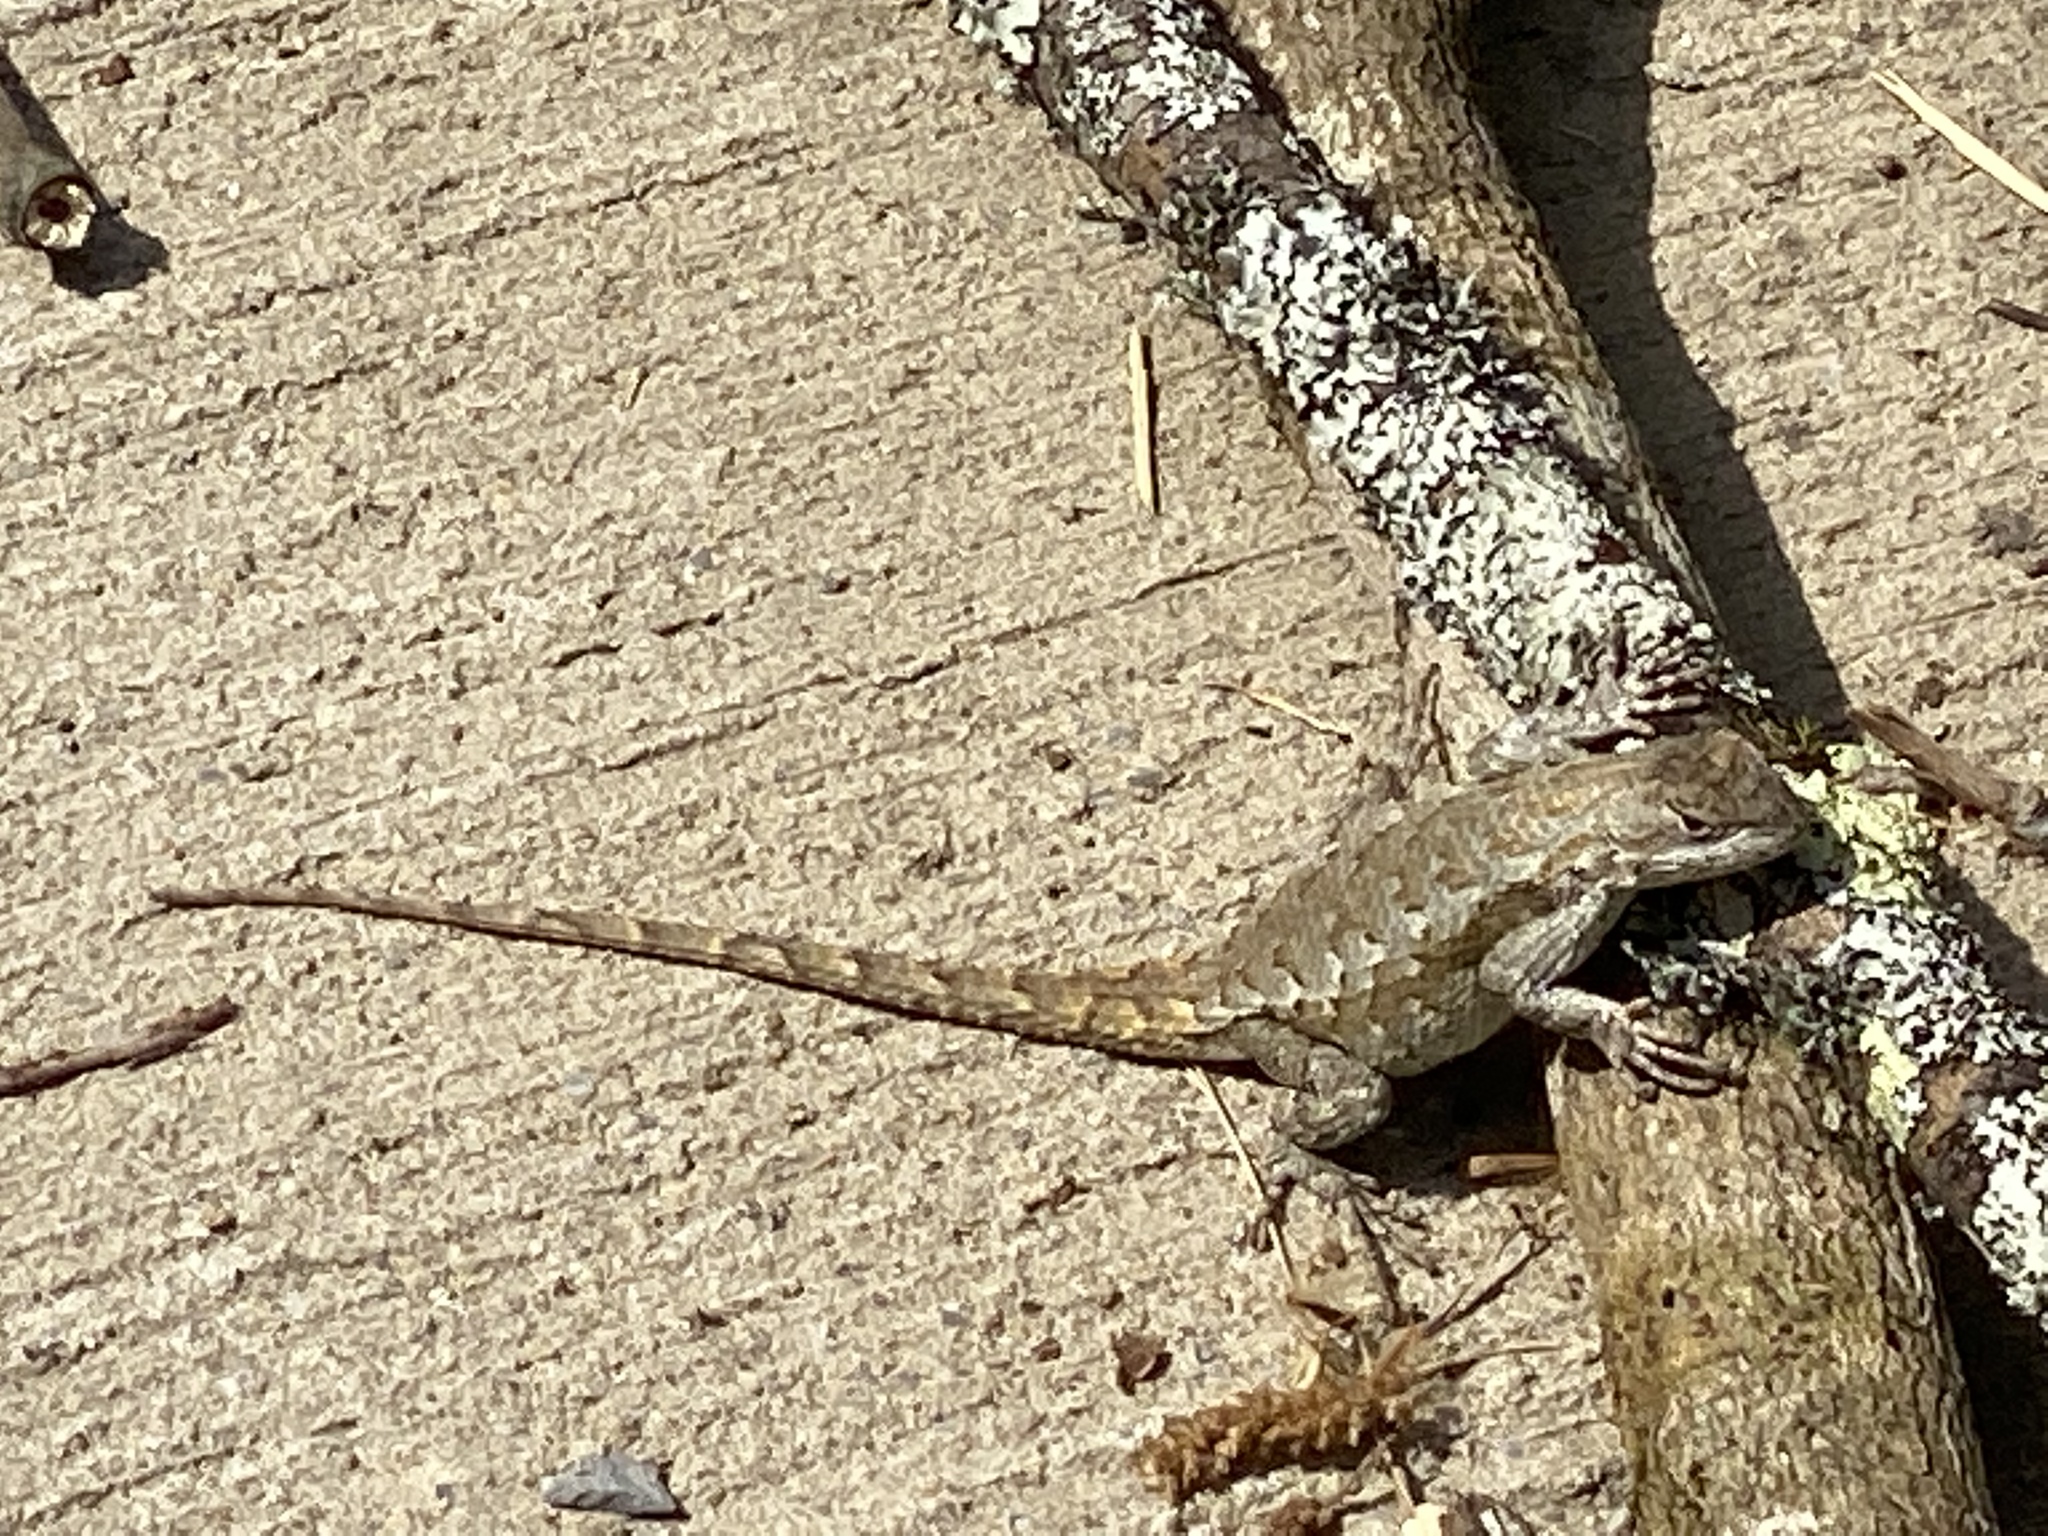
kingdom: Animalia
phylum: Chordata
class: Squamata
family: Phrynosomatidae
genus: Sceloporus
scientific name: Sceloporus undulatus
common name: Eastern fence lizard
